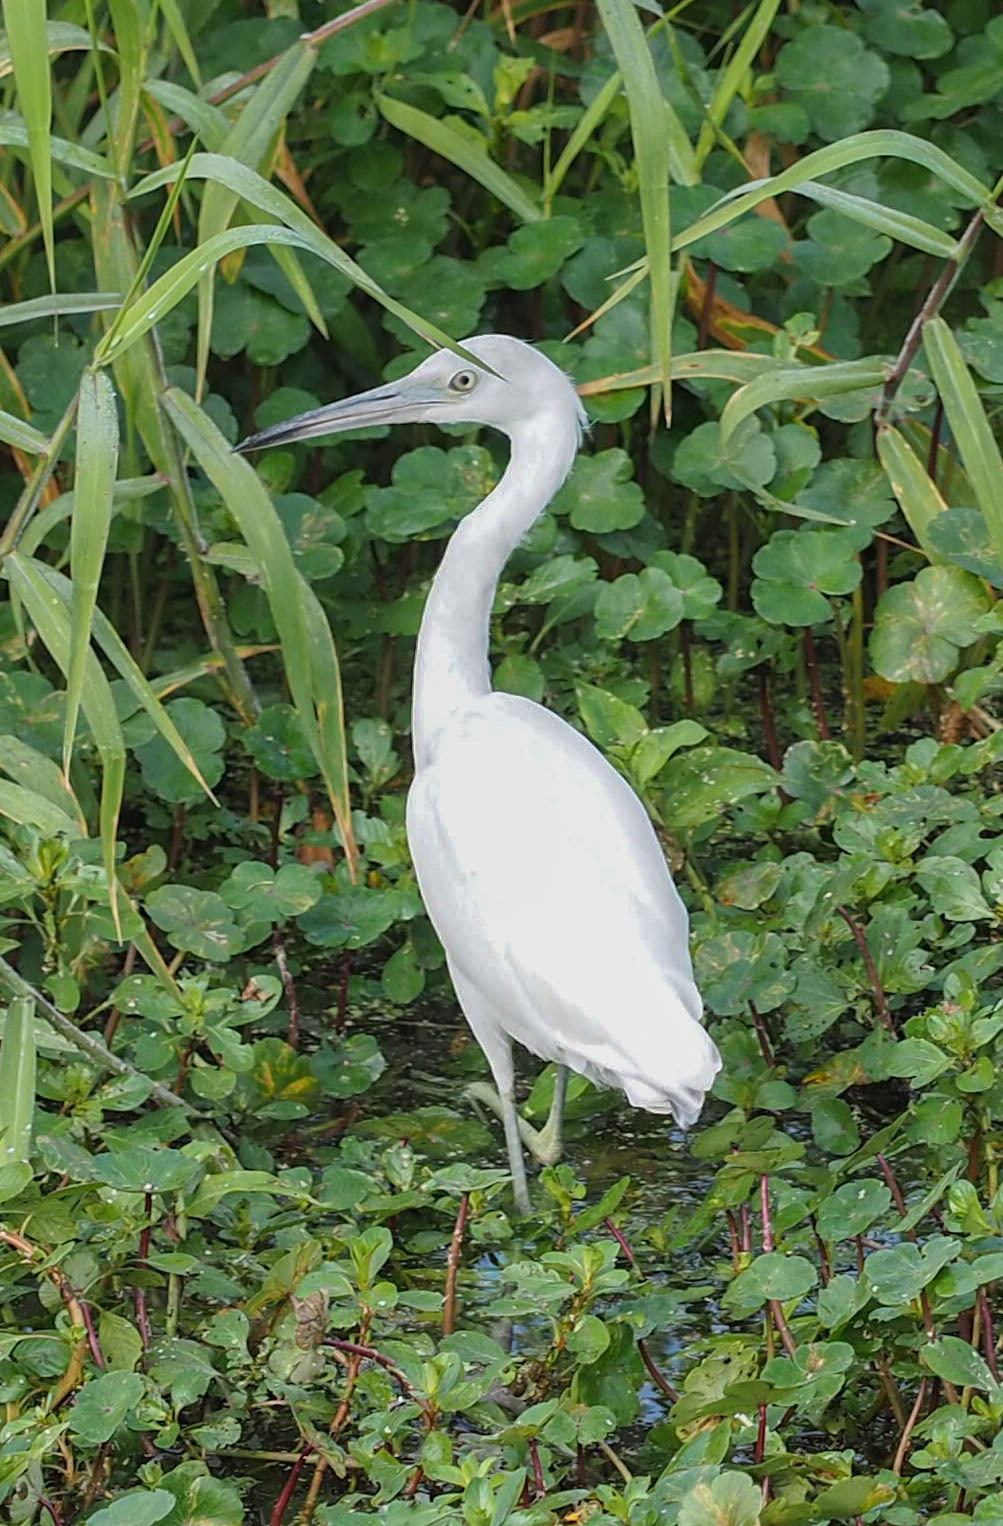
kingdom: Animalia
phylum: Chordata
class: Aves
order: Pelecaniformes
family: Ardeidae
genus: Egretta
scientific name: Egretta caerulea
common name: Little blue heron
